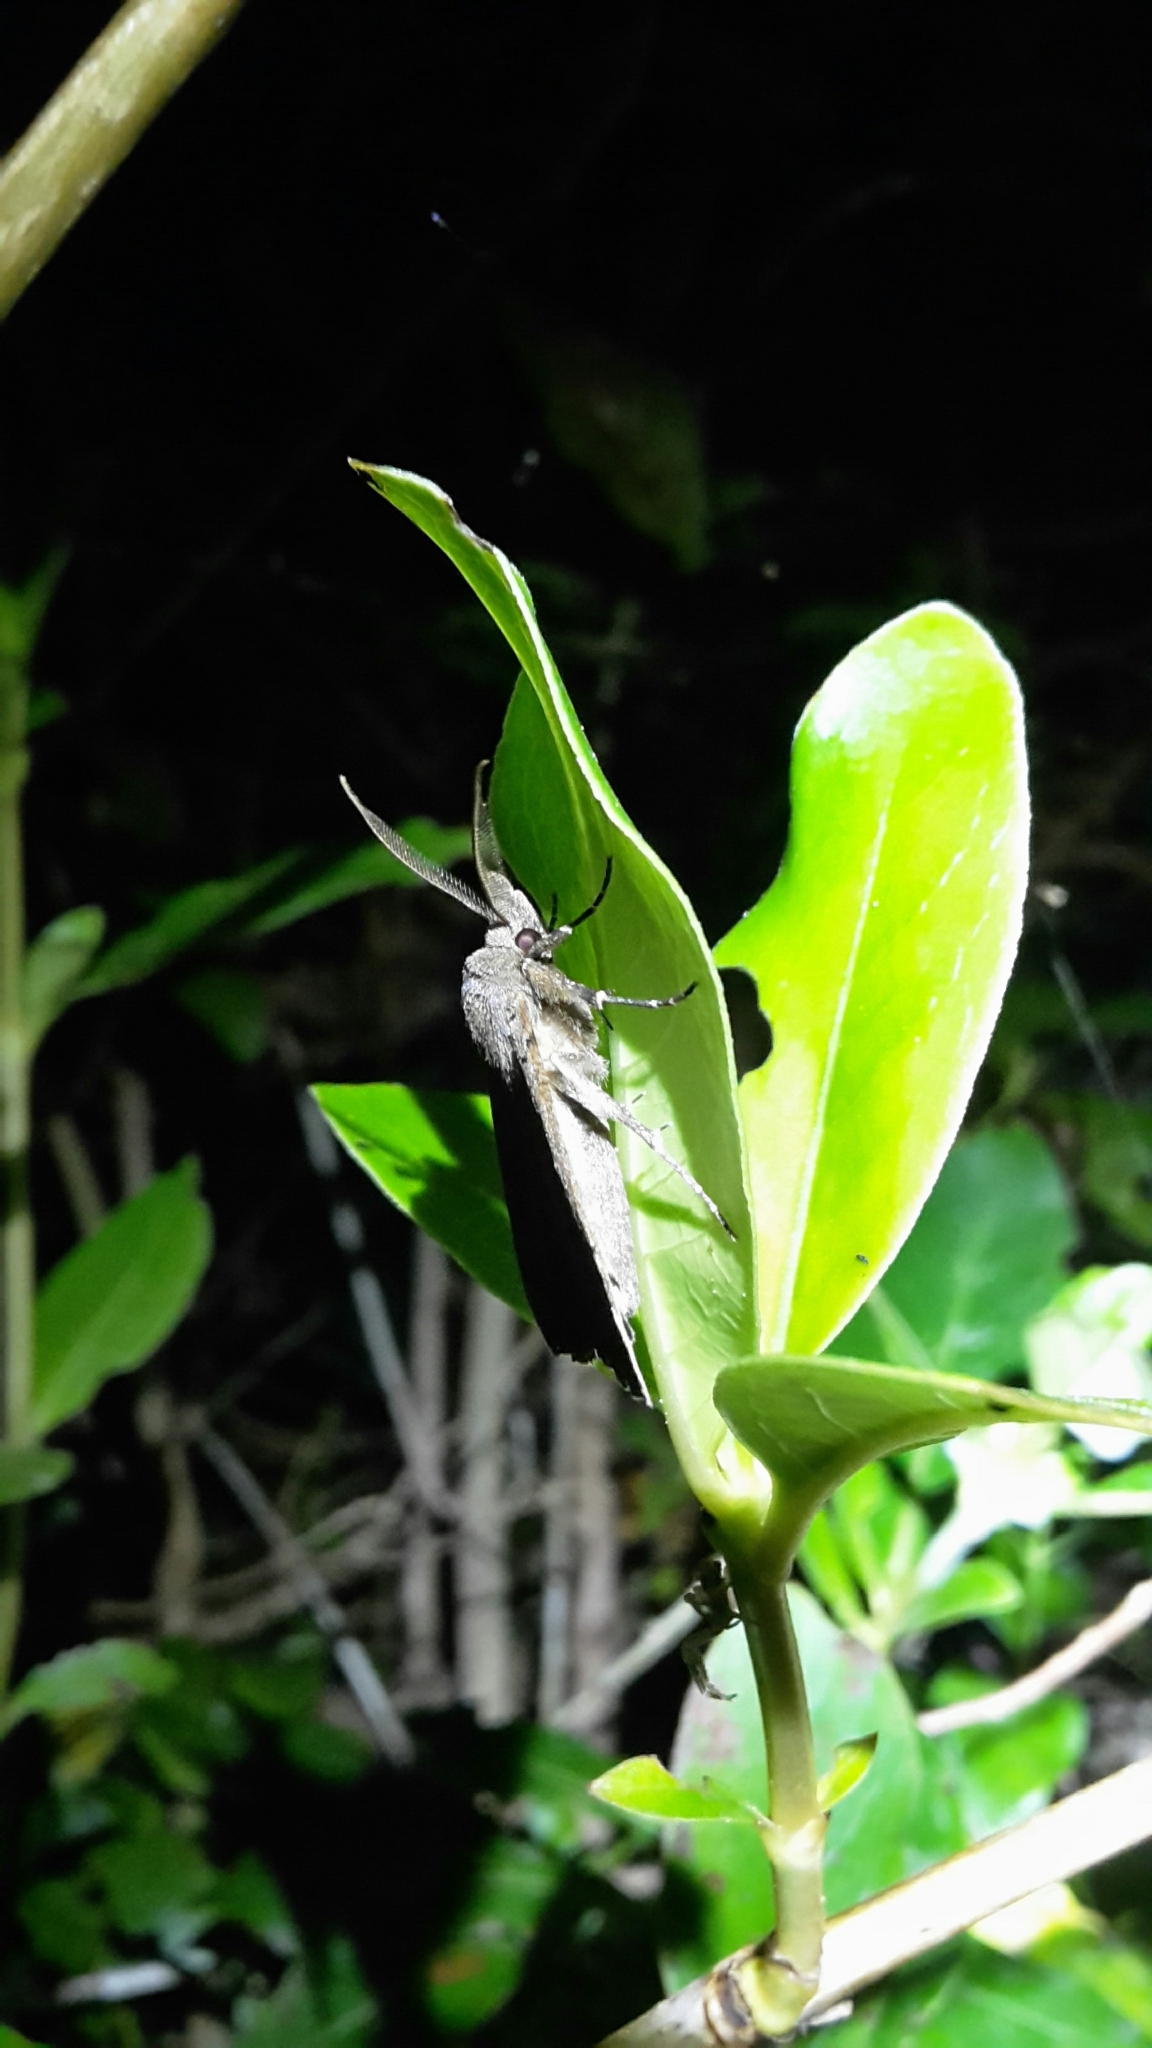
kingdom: Animalia
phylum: Arthropoda
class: Insecta
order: Lepidoptera
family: Erebidae
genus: Rhapsa
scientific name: Rhapsa scotosialis
